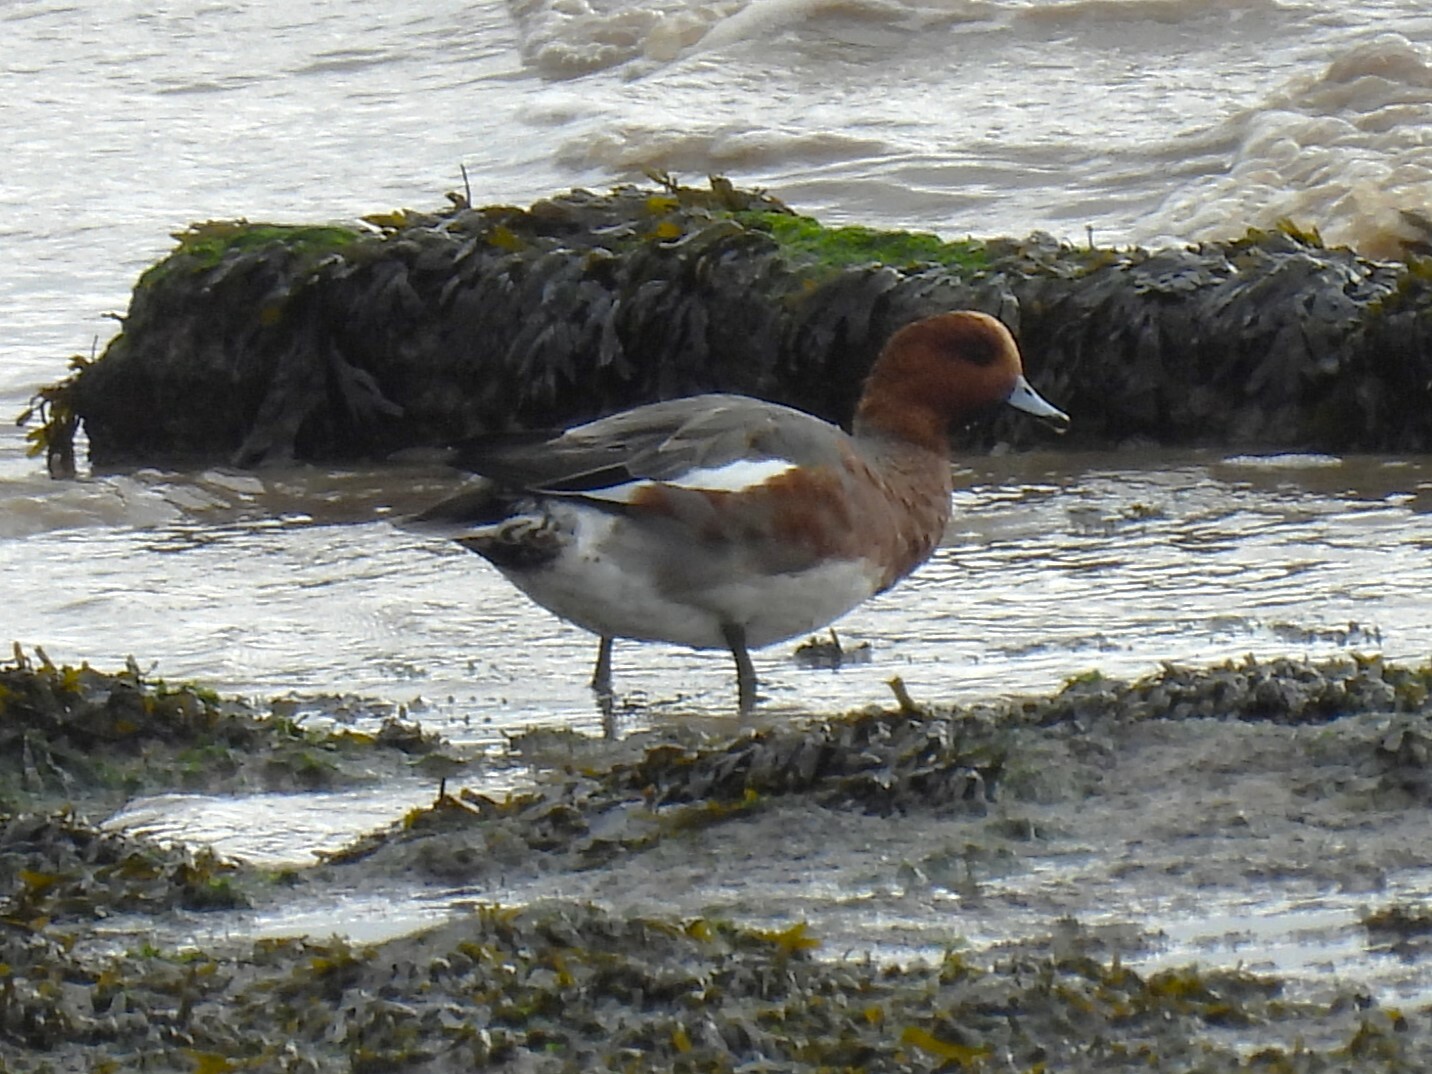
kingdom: Animalia
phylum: Chordata
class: Aves
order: Anseriformes
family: Anatidae
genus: Mareca
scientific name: Mareca penelope
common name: Eurasian wigeon
